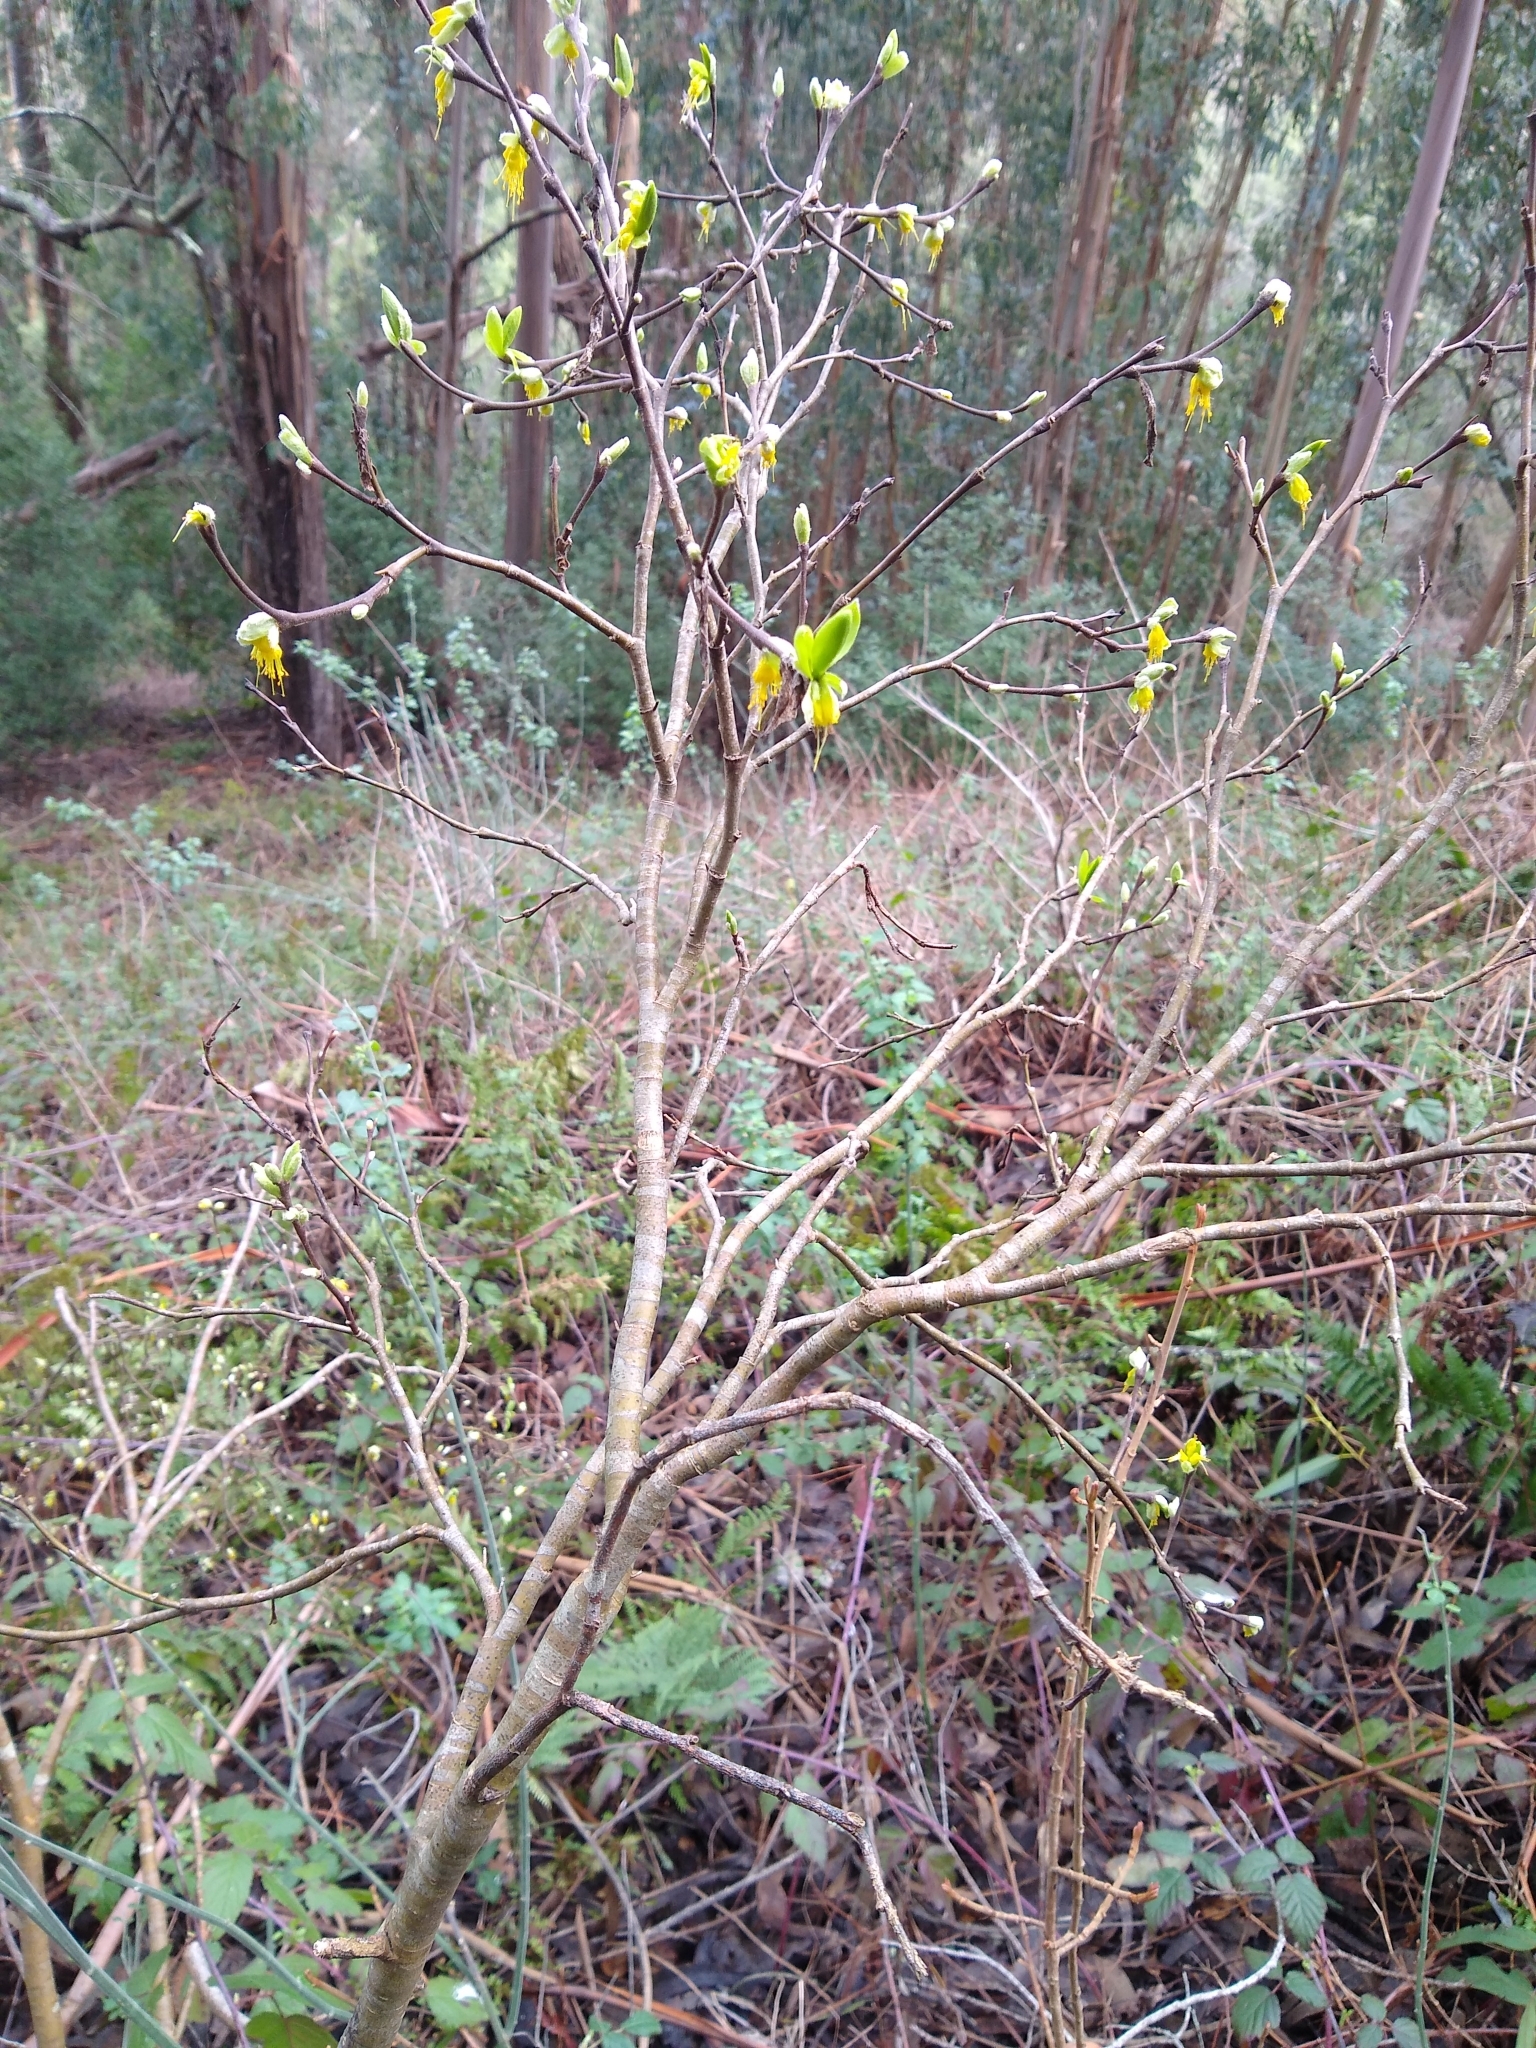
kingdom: Plantae
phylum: Tracheophyta
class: Magnoliopsida
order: Malvales
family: Thymelaeaceae
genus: Dirca
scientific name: Dirca occidentalis
